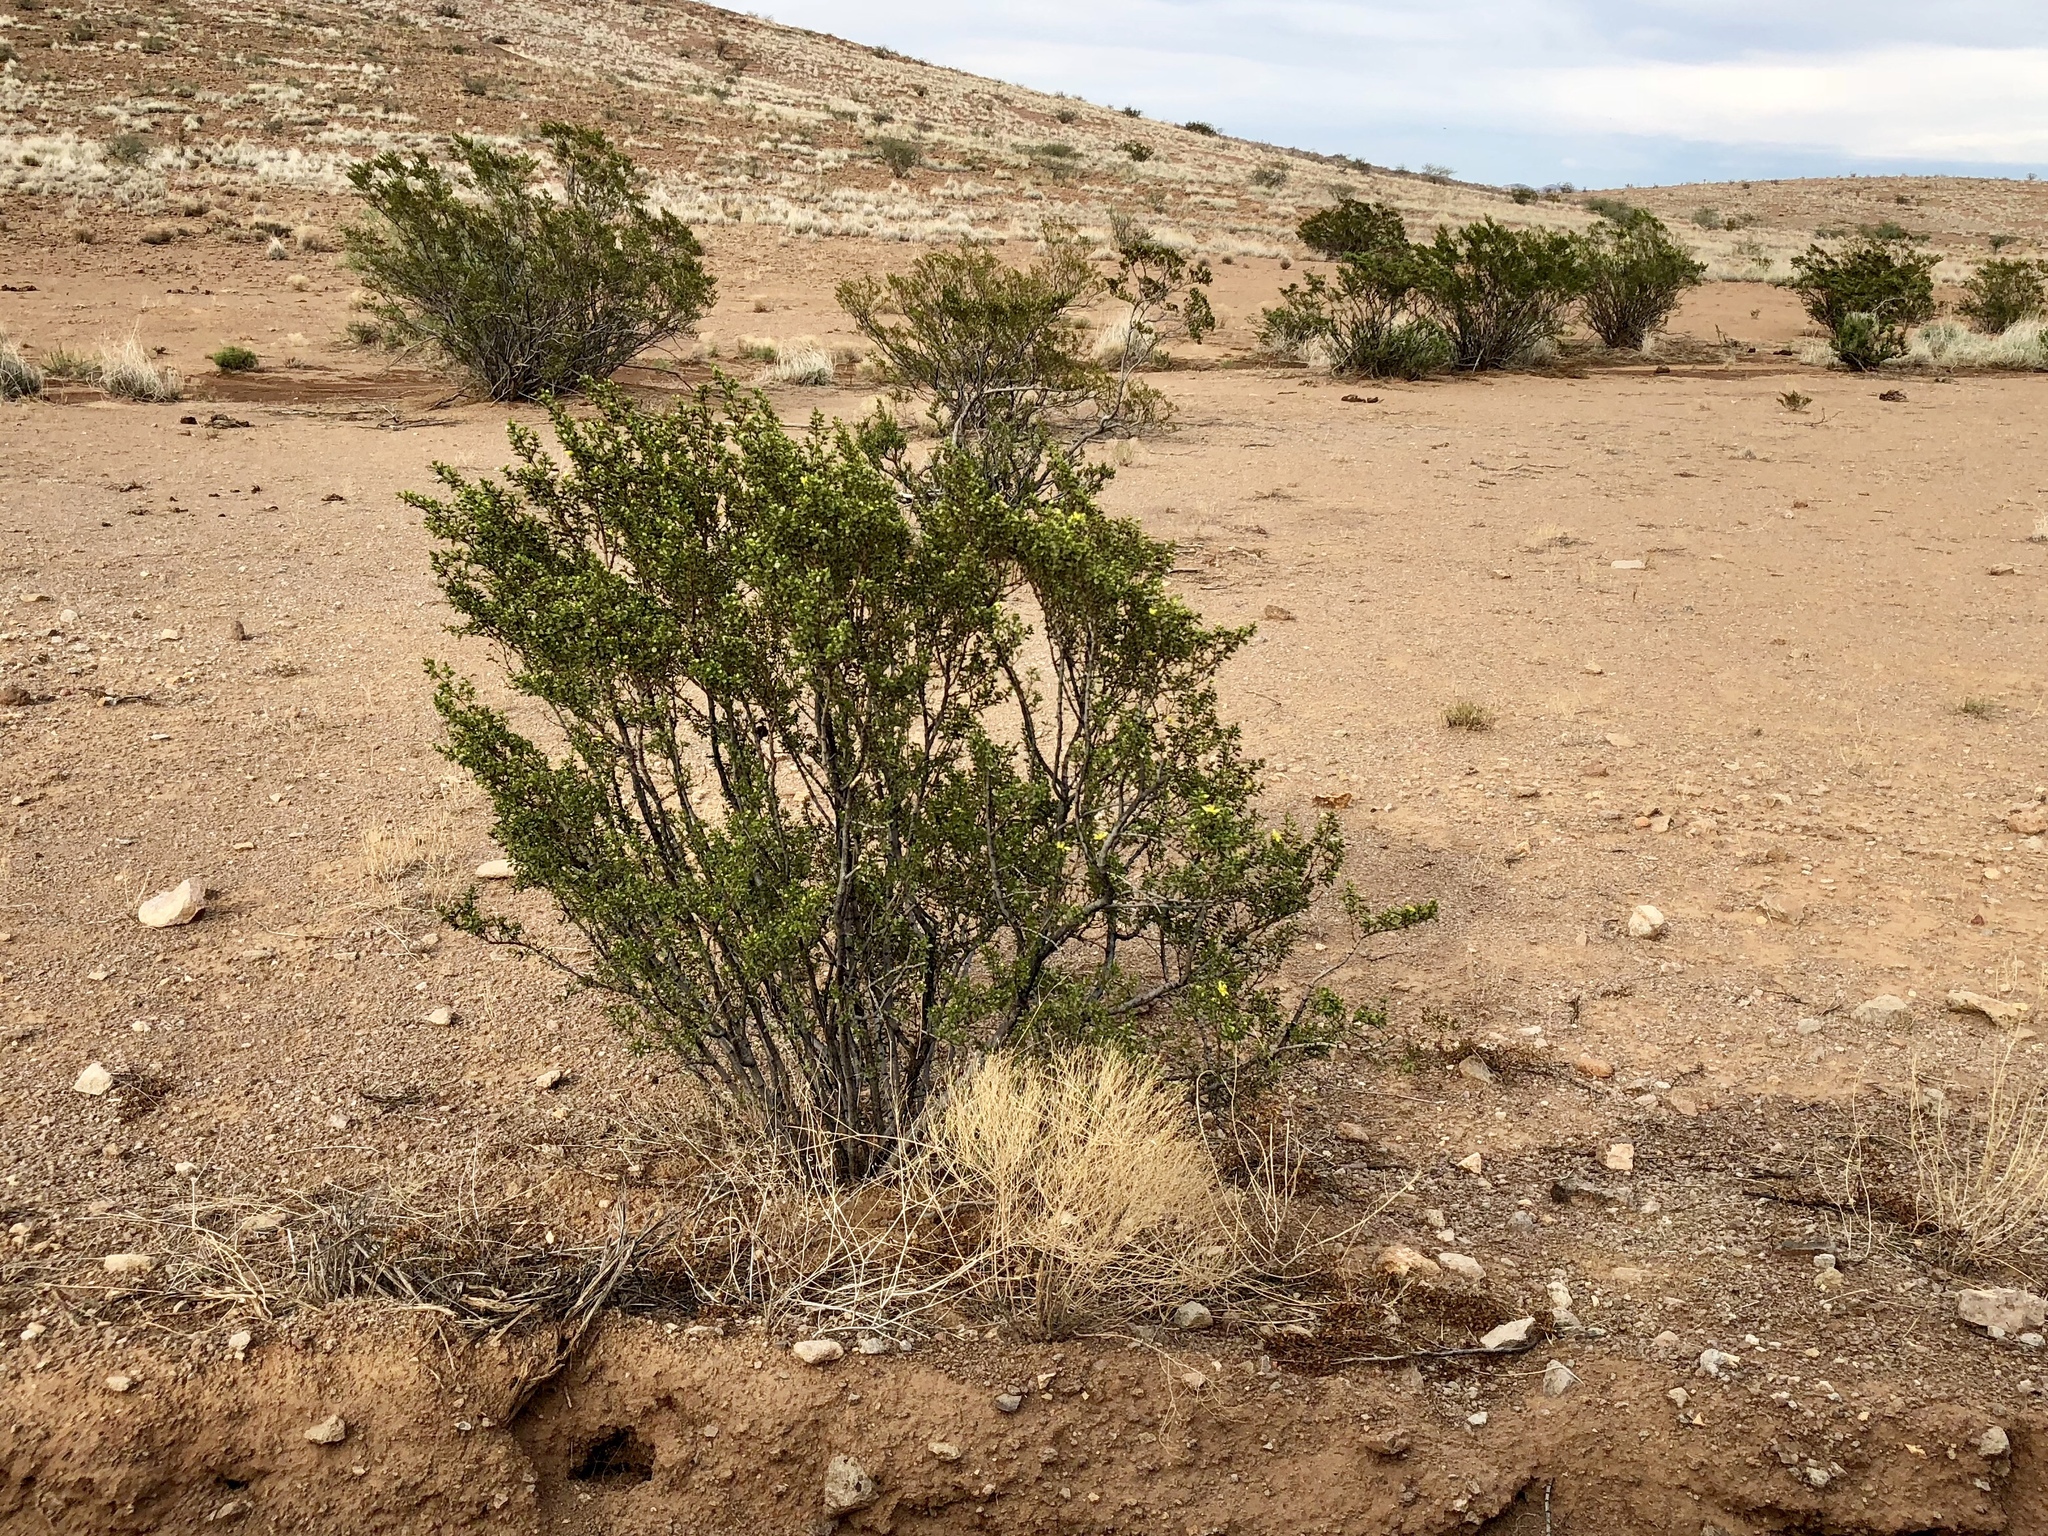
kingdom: Plantae
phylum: Tracheophyta
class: Magnoliopsida
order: Zygophyllales
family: Zygophyllaceae
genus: Larrea
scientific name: Larrea tridentata
